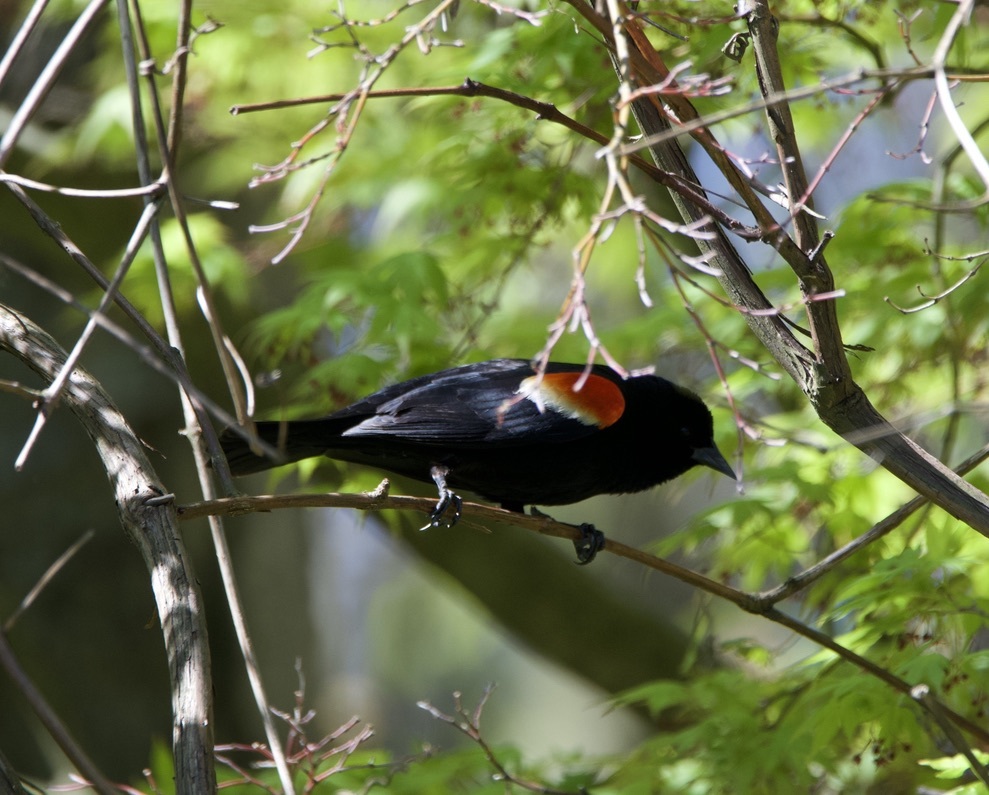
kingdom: Animalia
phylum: Chordata
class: Aves
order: Passeriformes
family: Icteridae
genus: Agelaius
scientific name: Agelaius phoeniceus
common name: Red-winged blackbird
